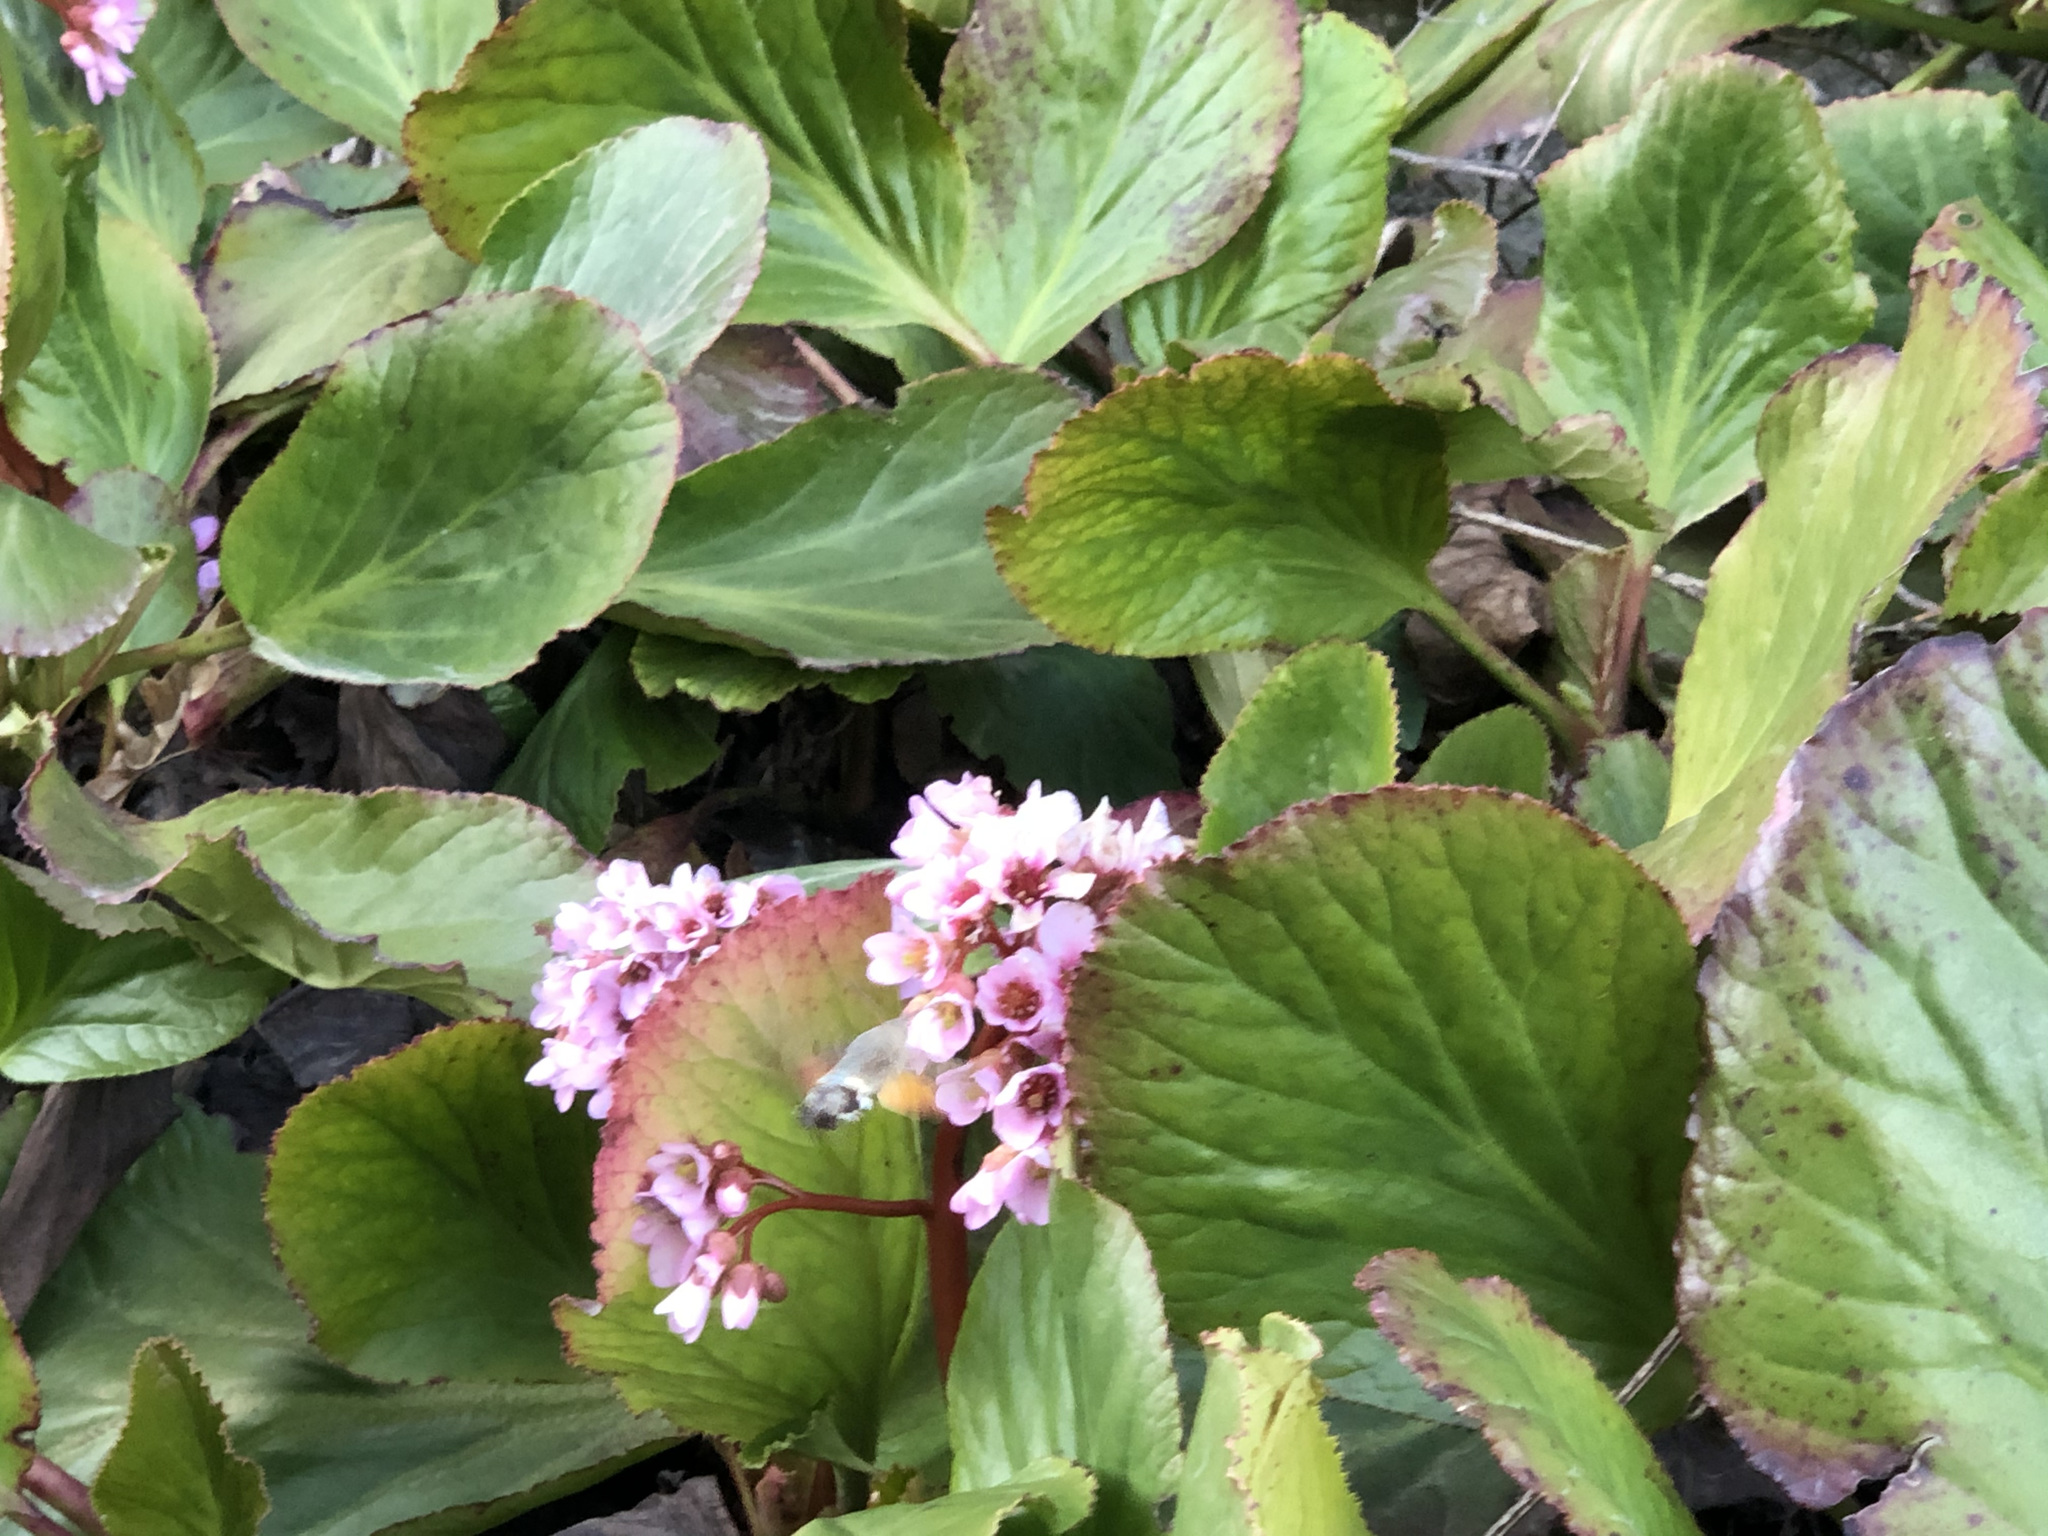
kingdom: Animalia
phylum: Arthropoda
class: Insecta
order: Lepidoptera
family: Sphingidae
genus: Macroglossum
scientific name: Macroglossum stellatarum
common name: Humming-bird hawk-moth
